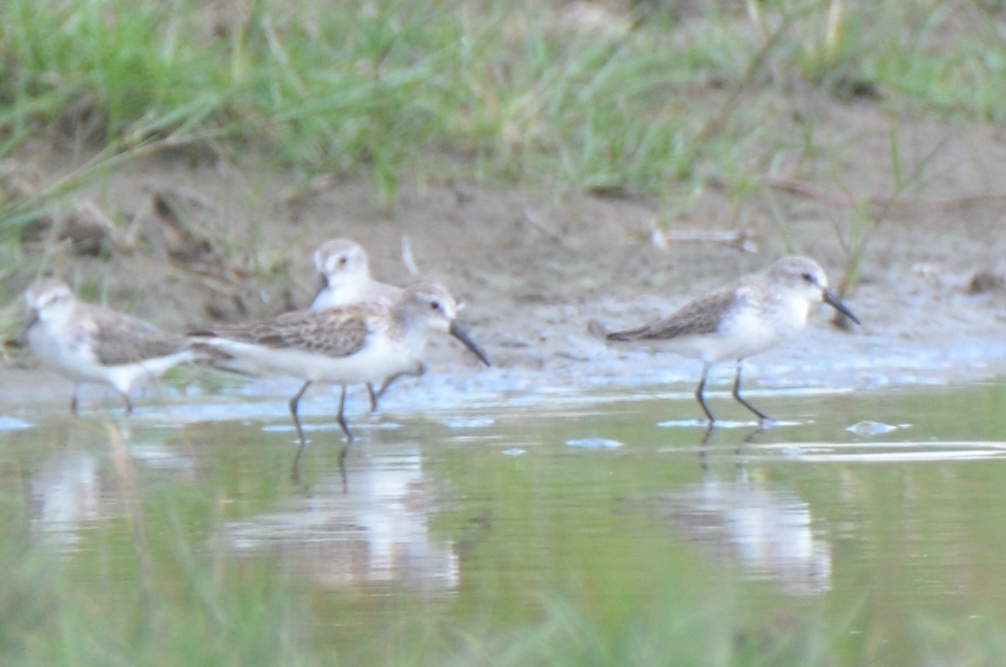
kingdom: Animalia
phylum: Chordata
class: Aves
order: Charadriiformes
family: Scolopacidae
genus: Calidris
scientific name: Calidris mauri
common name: Western sandpiper
